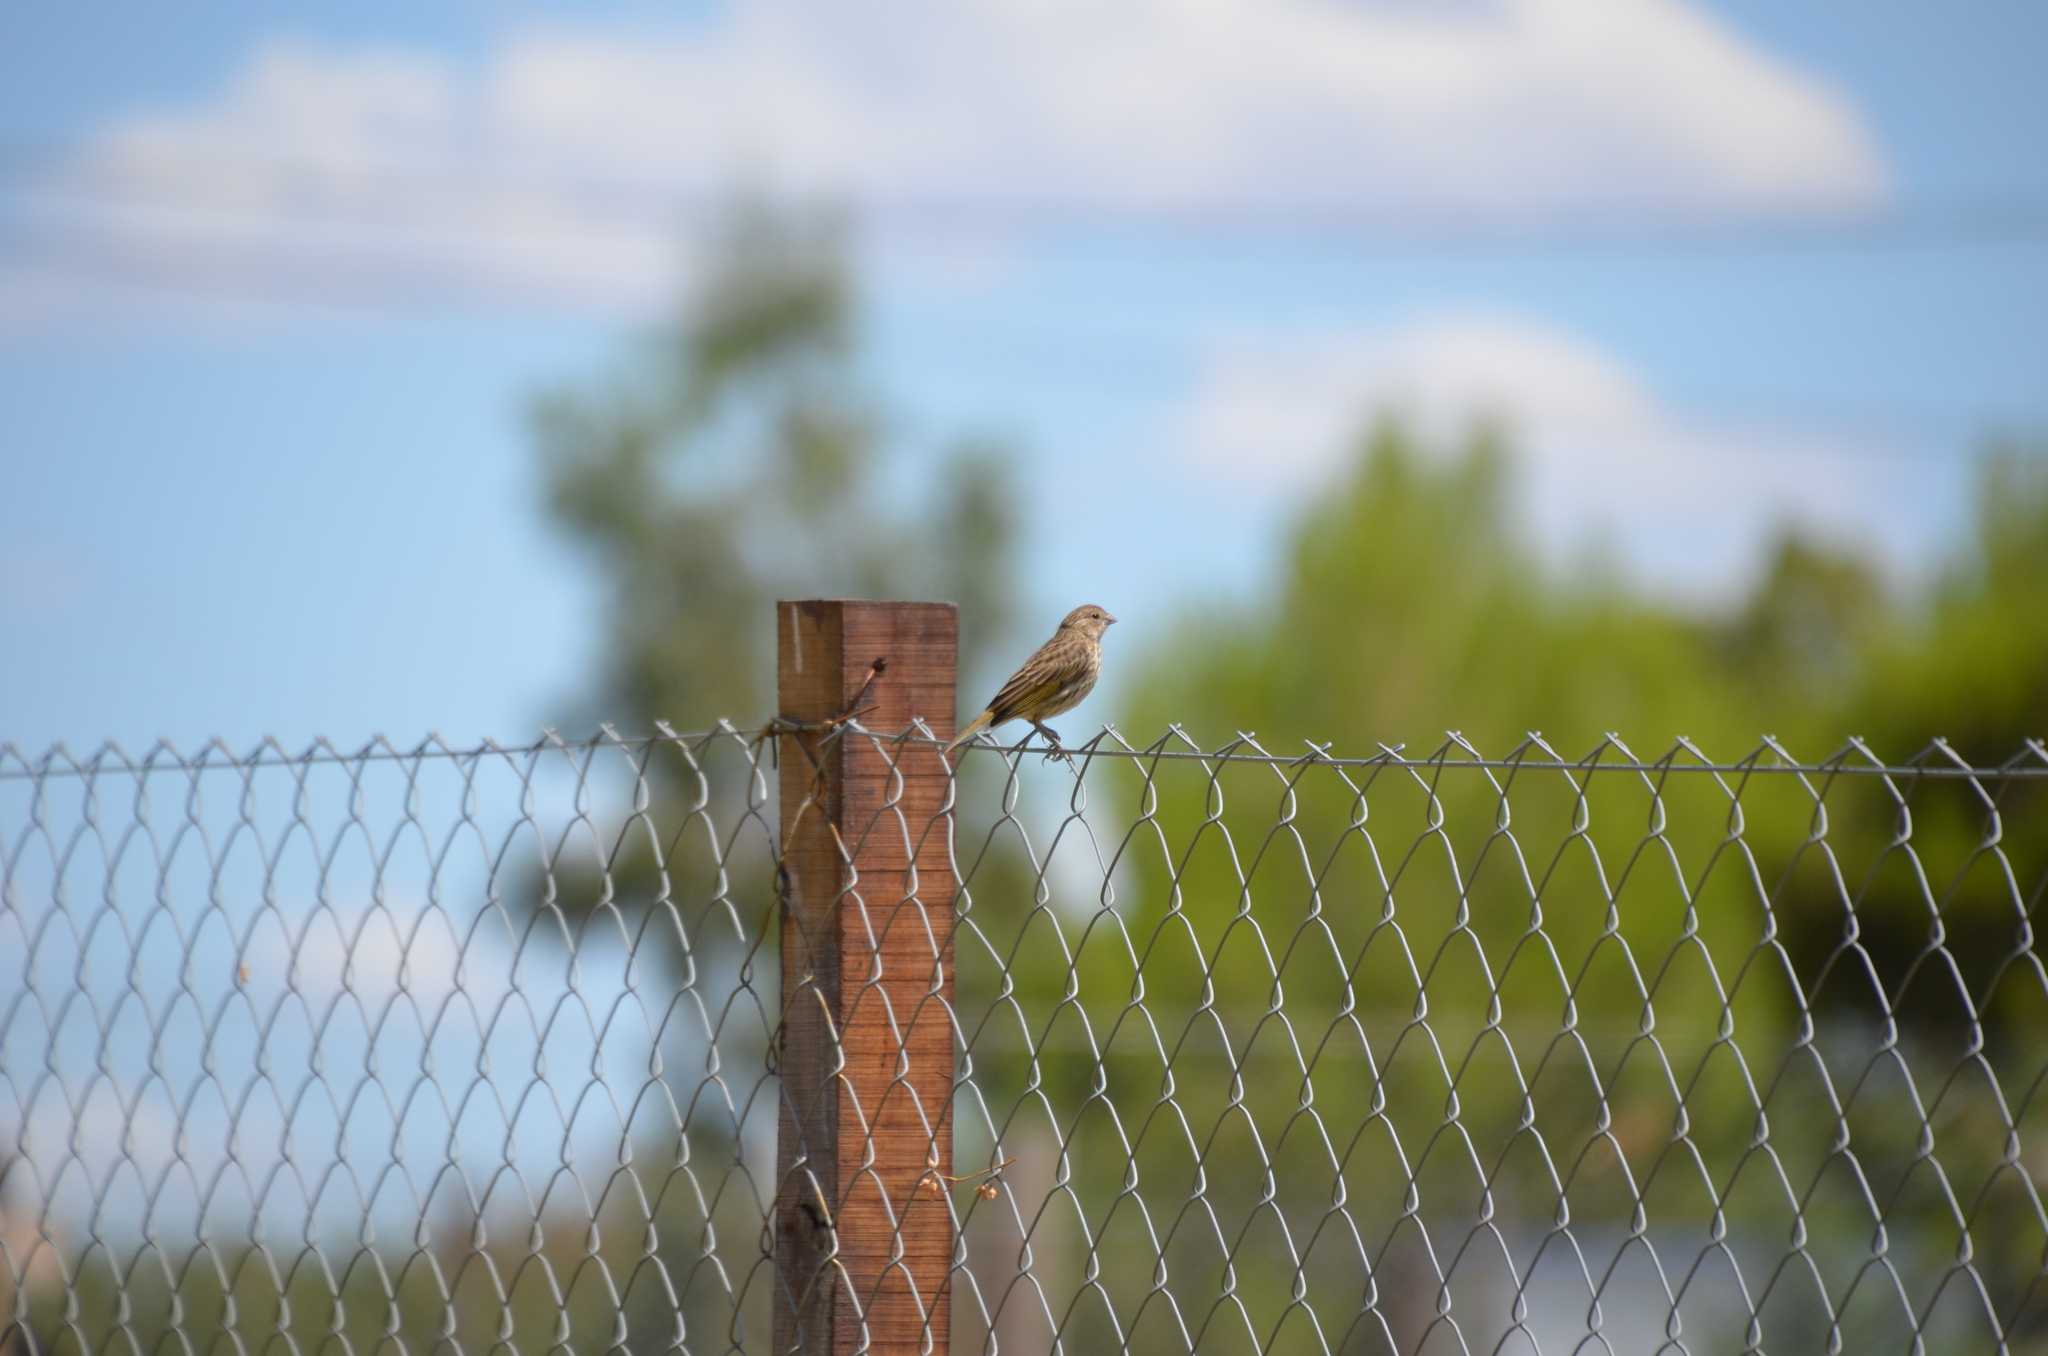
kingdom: Animalia
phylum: Chordata
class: Aves
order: Passeriformes
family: Passerellidae
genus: Ammodramus
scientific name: Ammodramus humeralis
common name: Grassland sparrow
